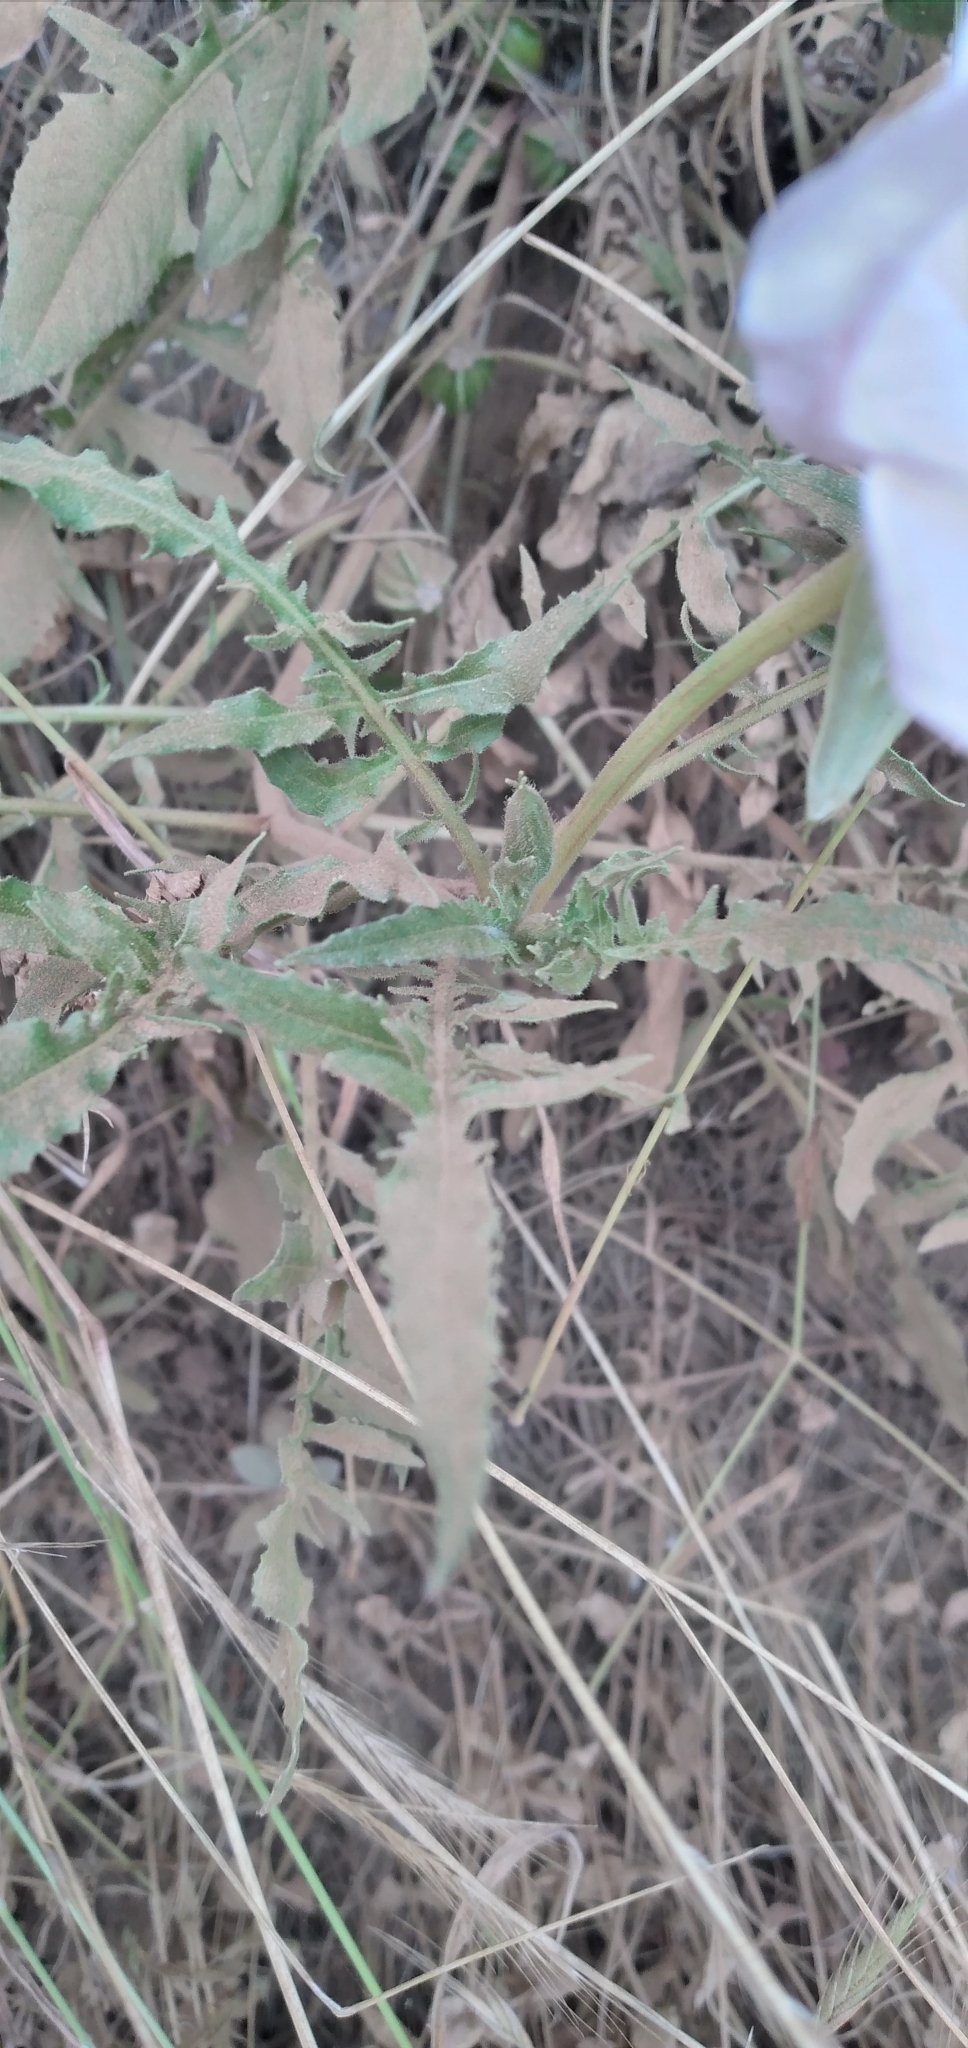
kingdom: Plantae
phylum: Tracheophyta
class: Magnoliopsida
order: Myrtales
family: Onagraceae
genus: Oenothera
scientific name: Oenothera acaulis
